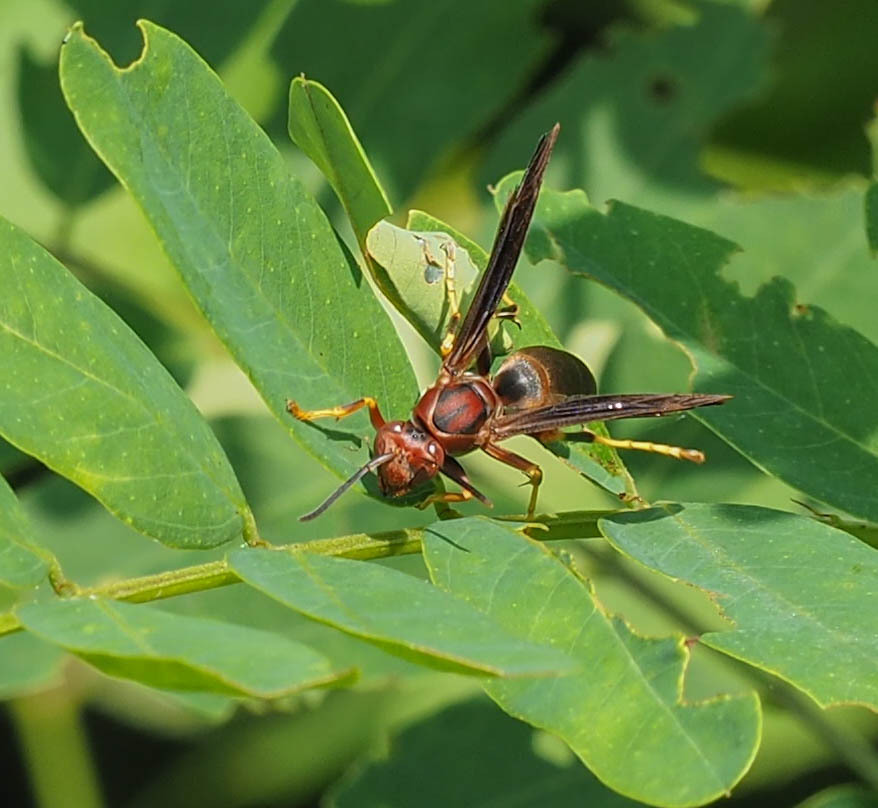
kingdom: Animalia
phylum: Arthropoda
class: Insecta
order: Hymenoptera
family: Eumenidae
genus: Polistes
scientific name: Polistes metricus
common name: Metric paper wasp
